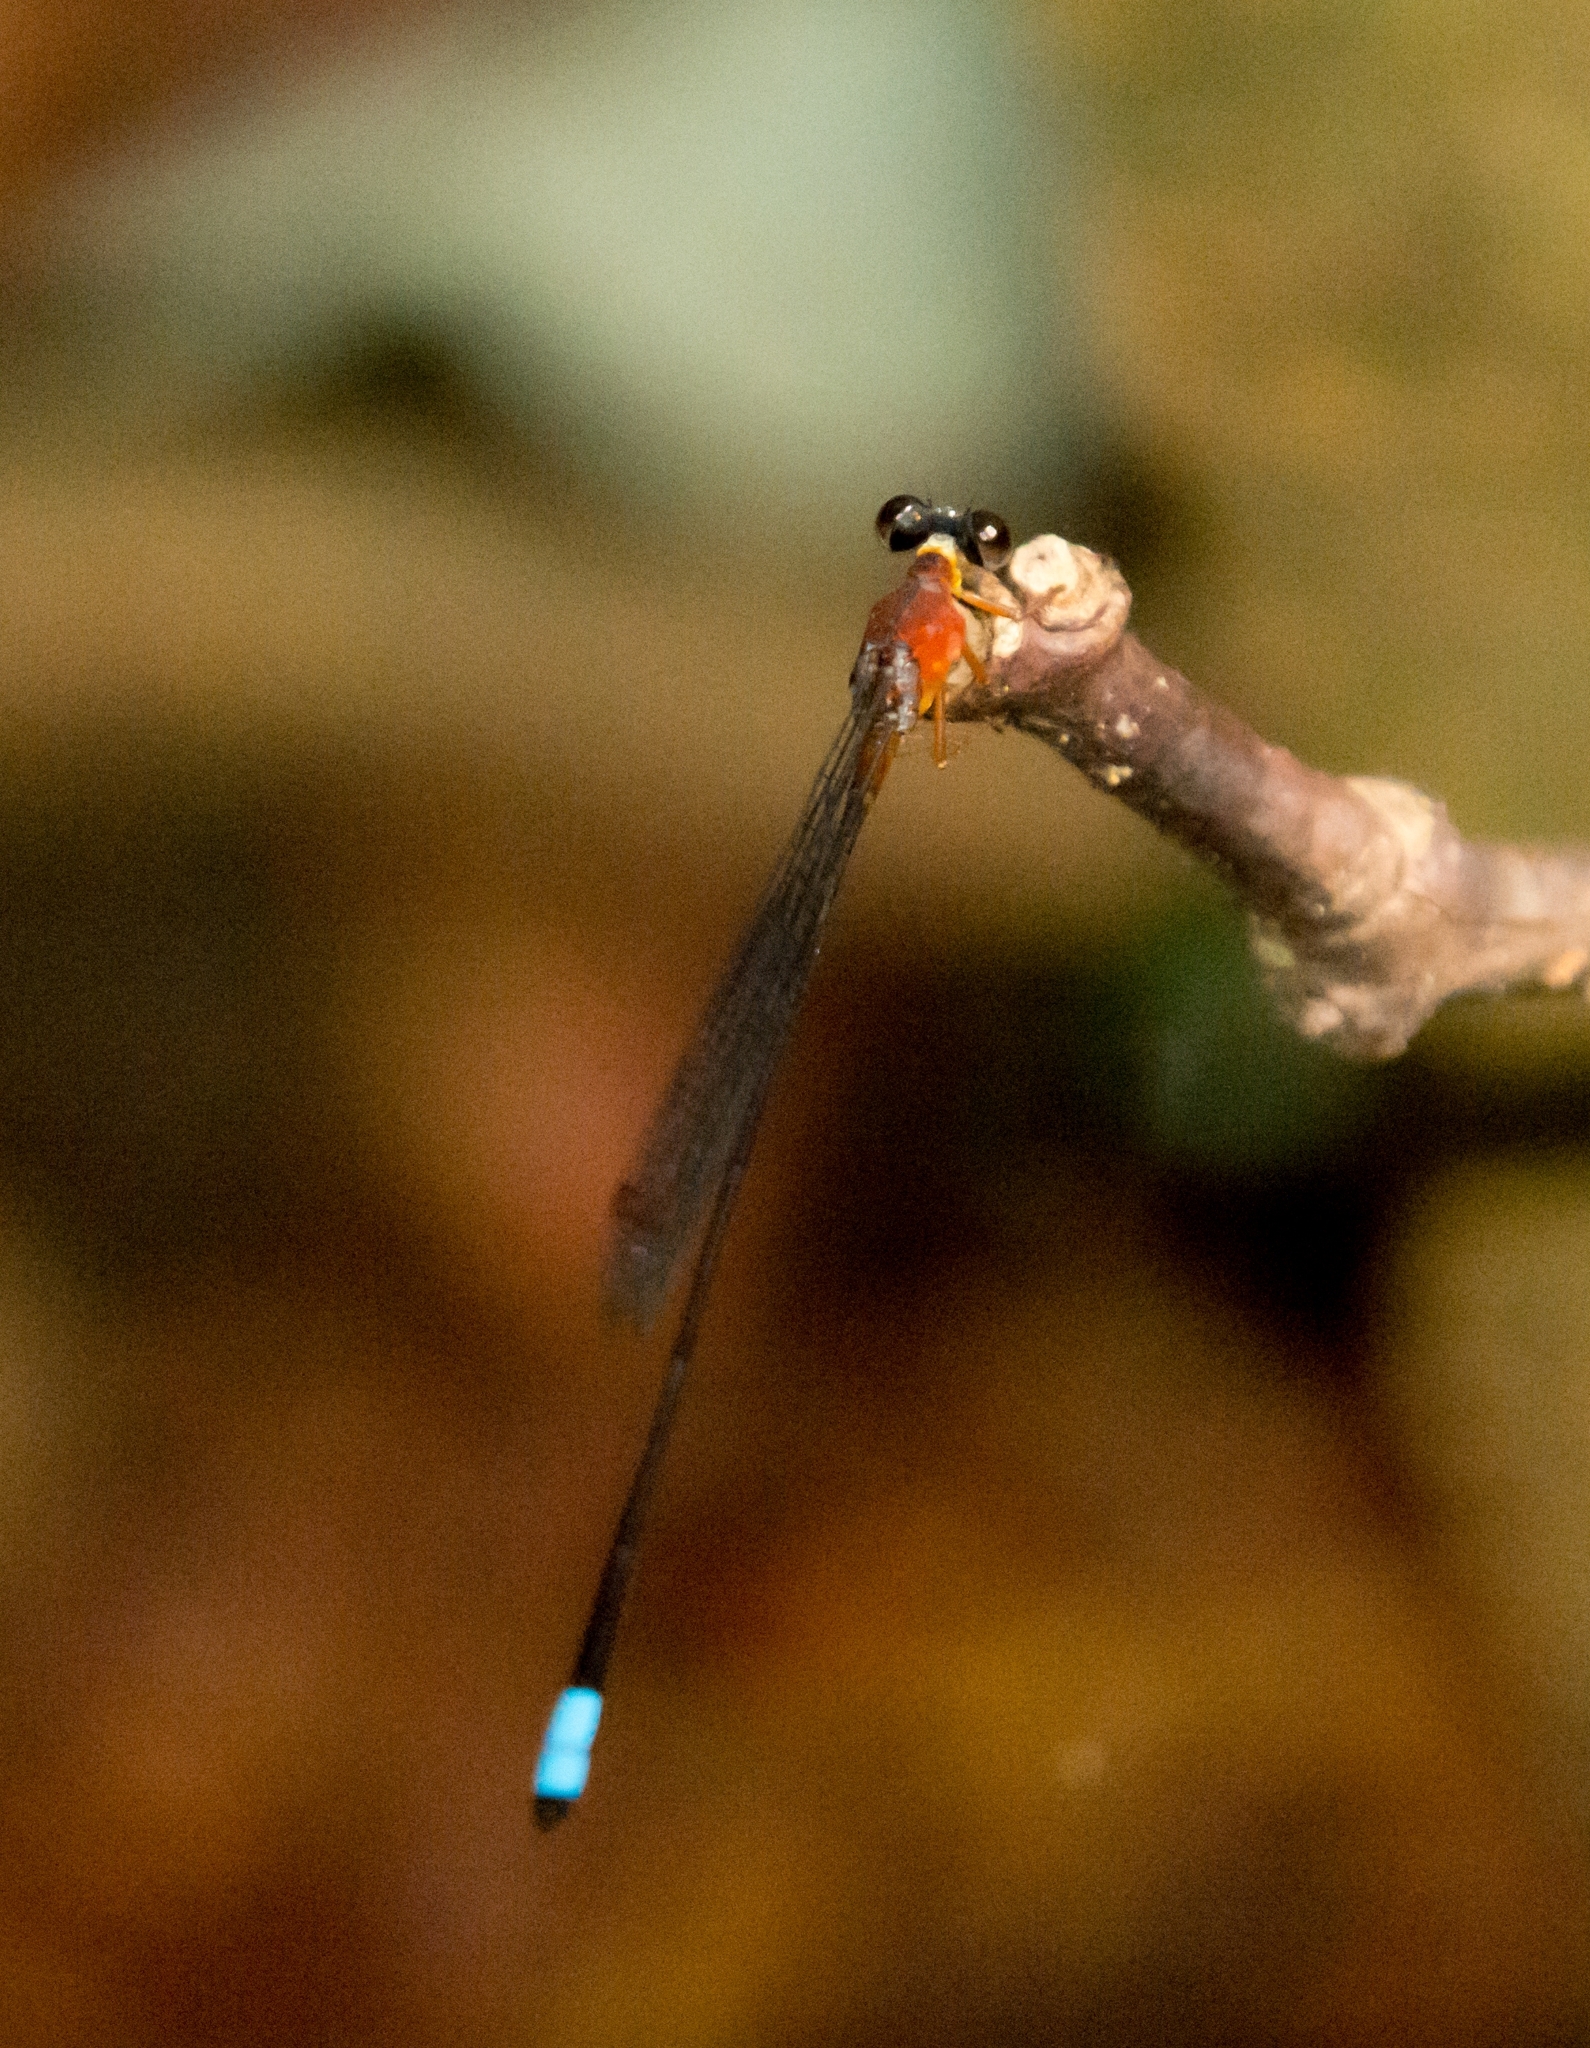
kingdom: Animalia
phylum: Arthropoda
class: Insecta
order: Odonata
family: Platystictidae
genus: Indosticta
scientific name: Indosticta deccanensis
